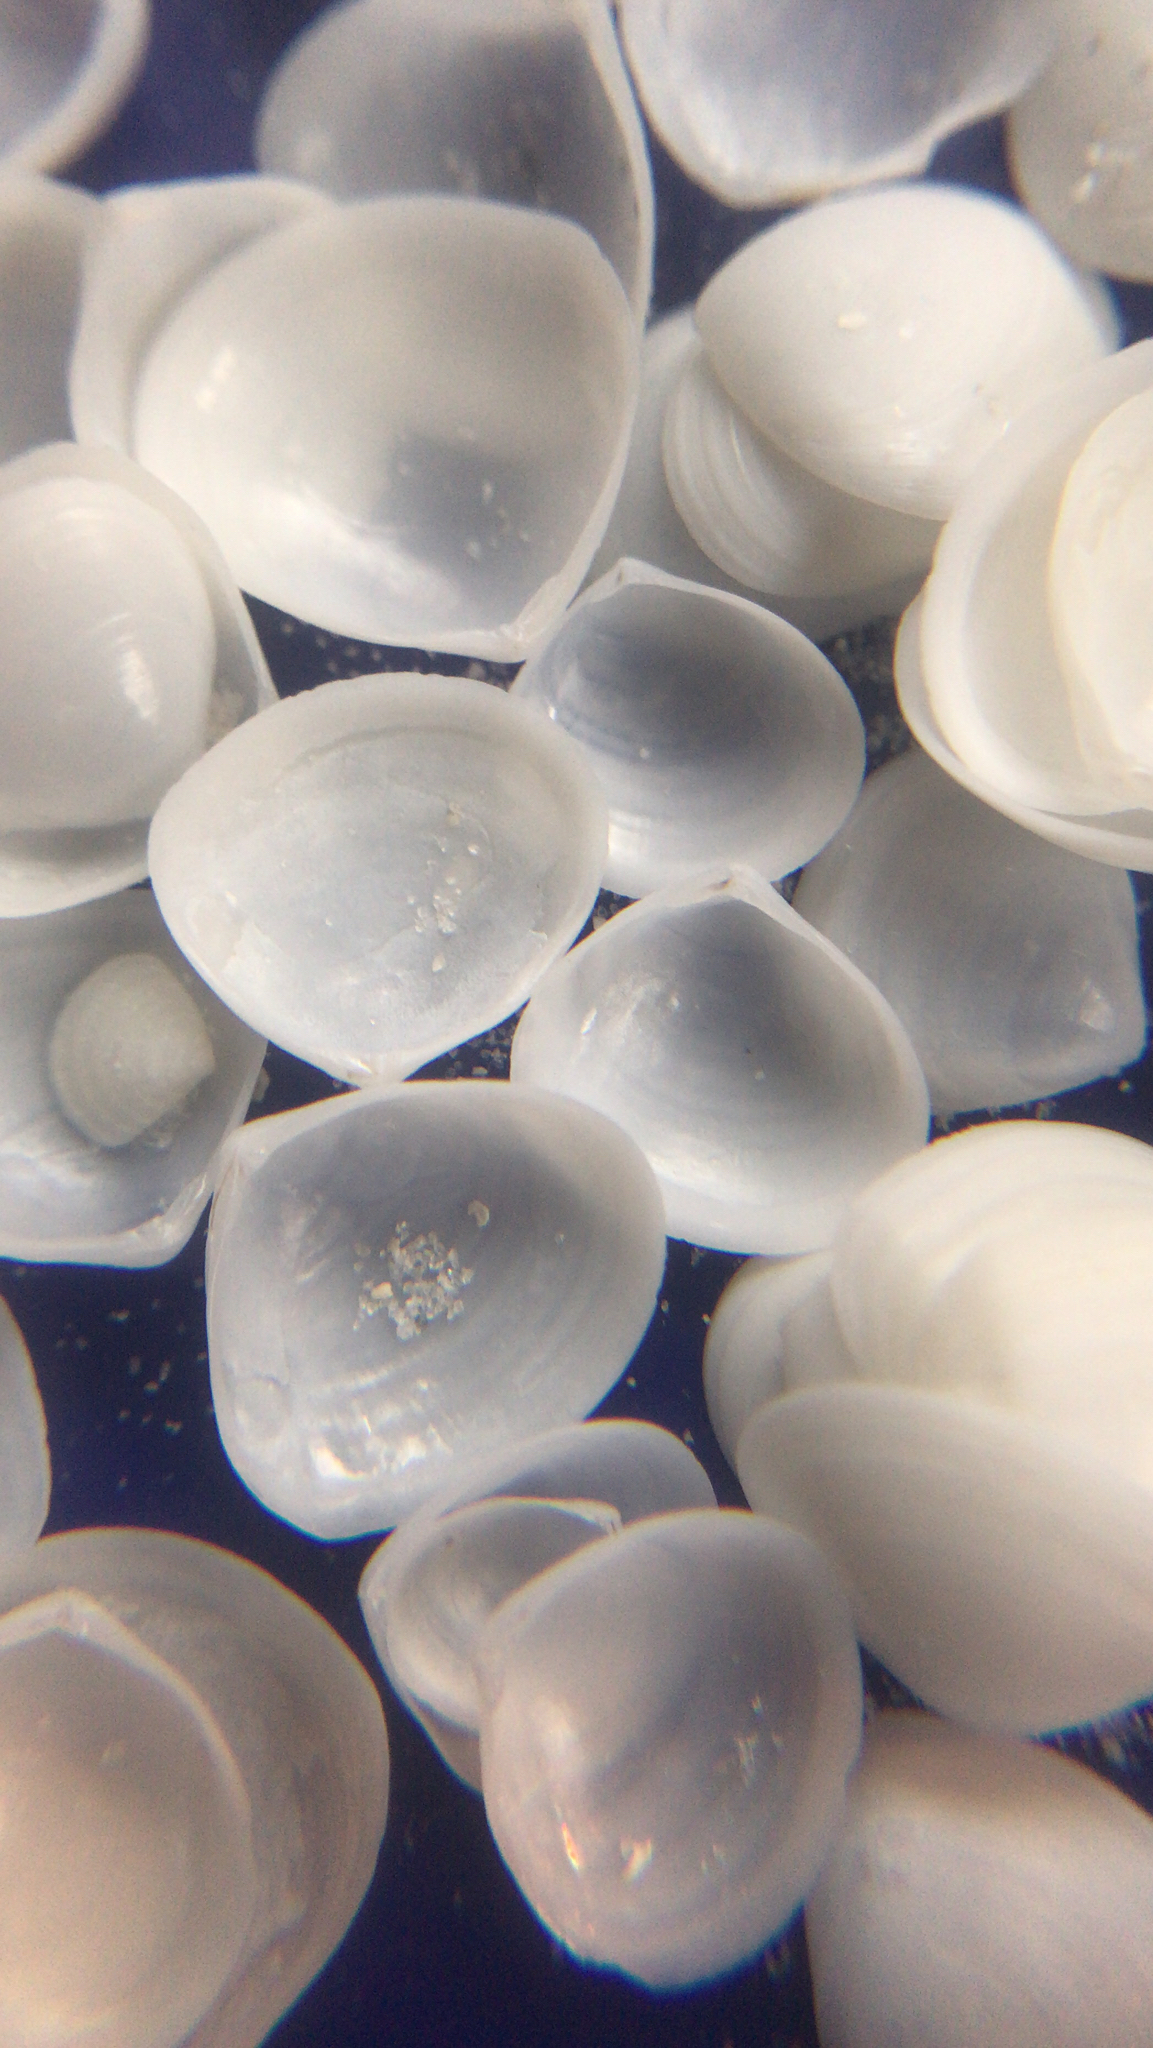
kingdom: Animalia
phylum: Mollusca
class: Bivalvia
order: Cardiida
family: Semelidae
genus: Abra
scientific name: Abra aequalis
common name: Common atlantic abra
